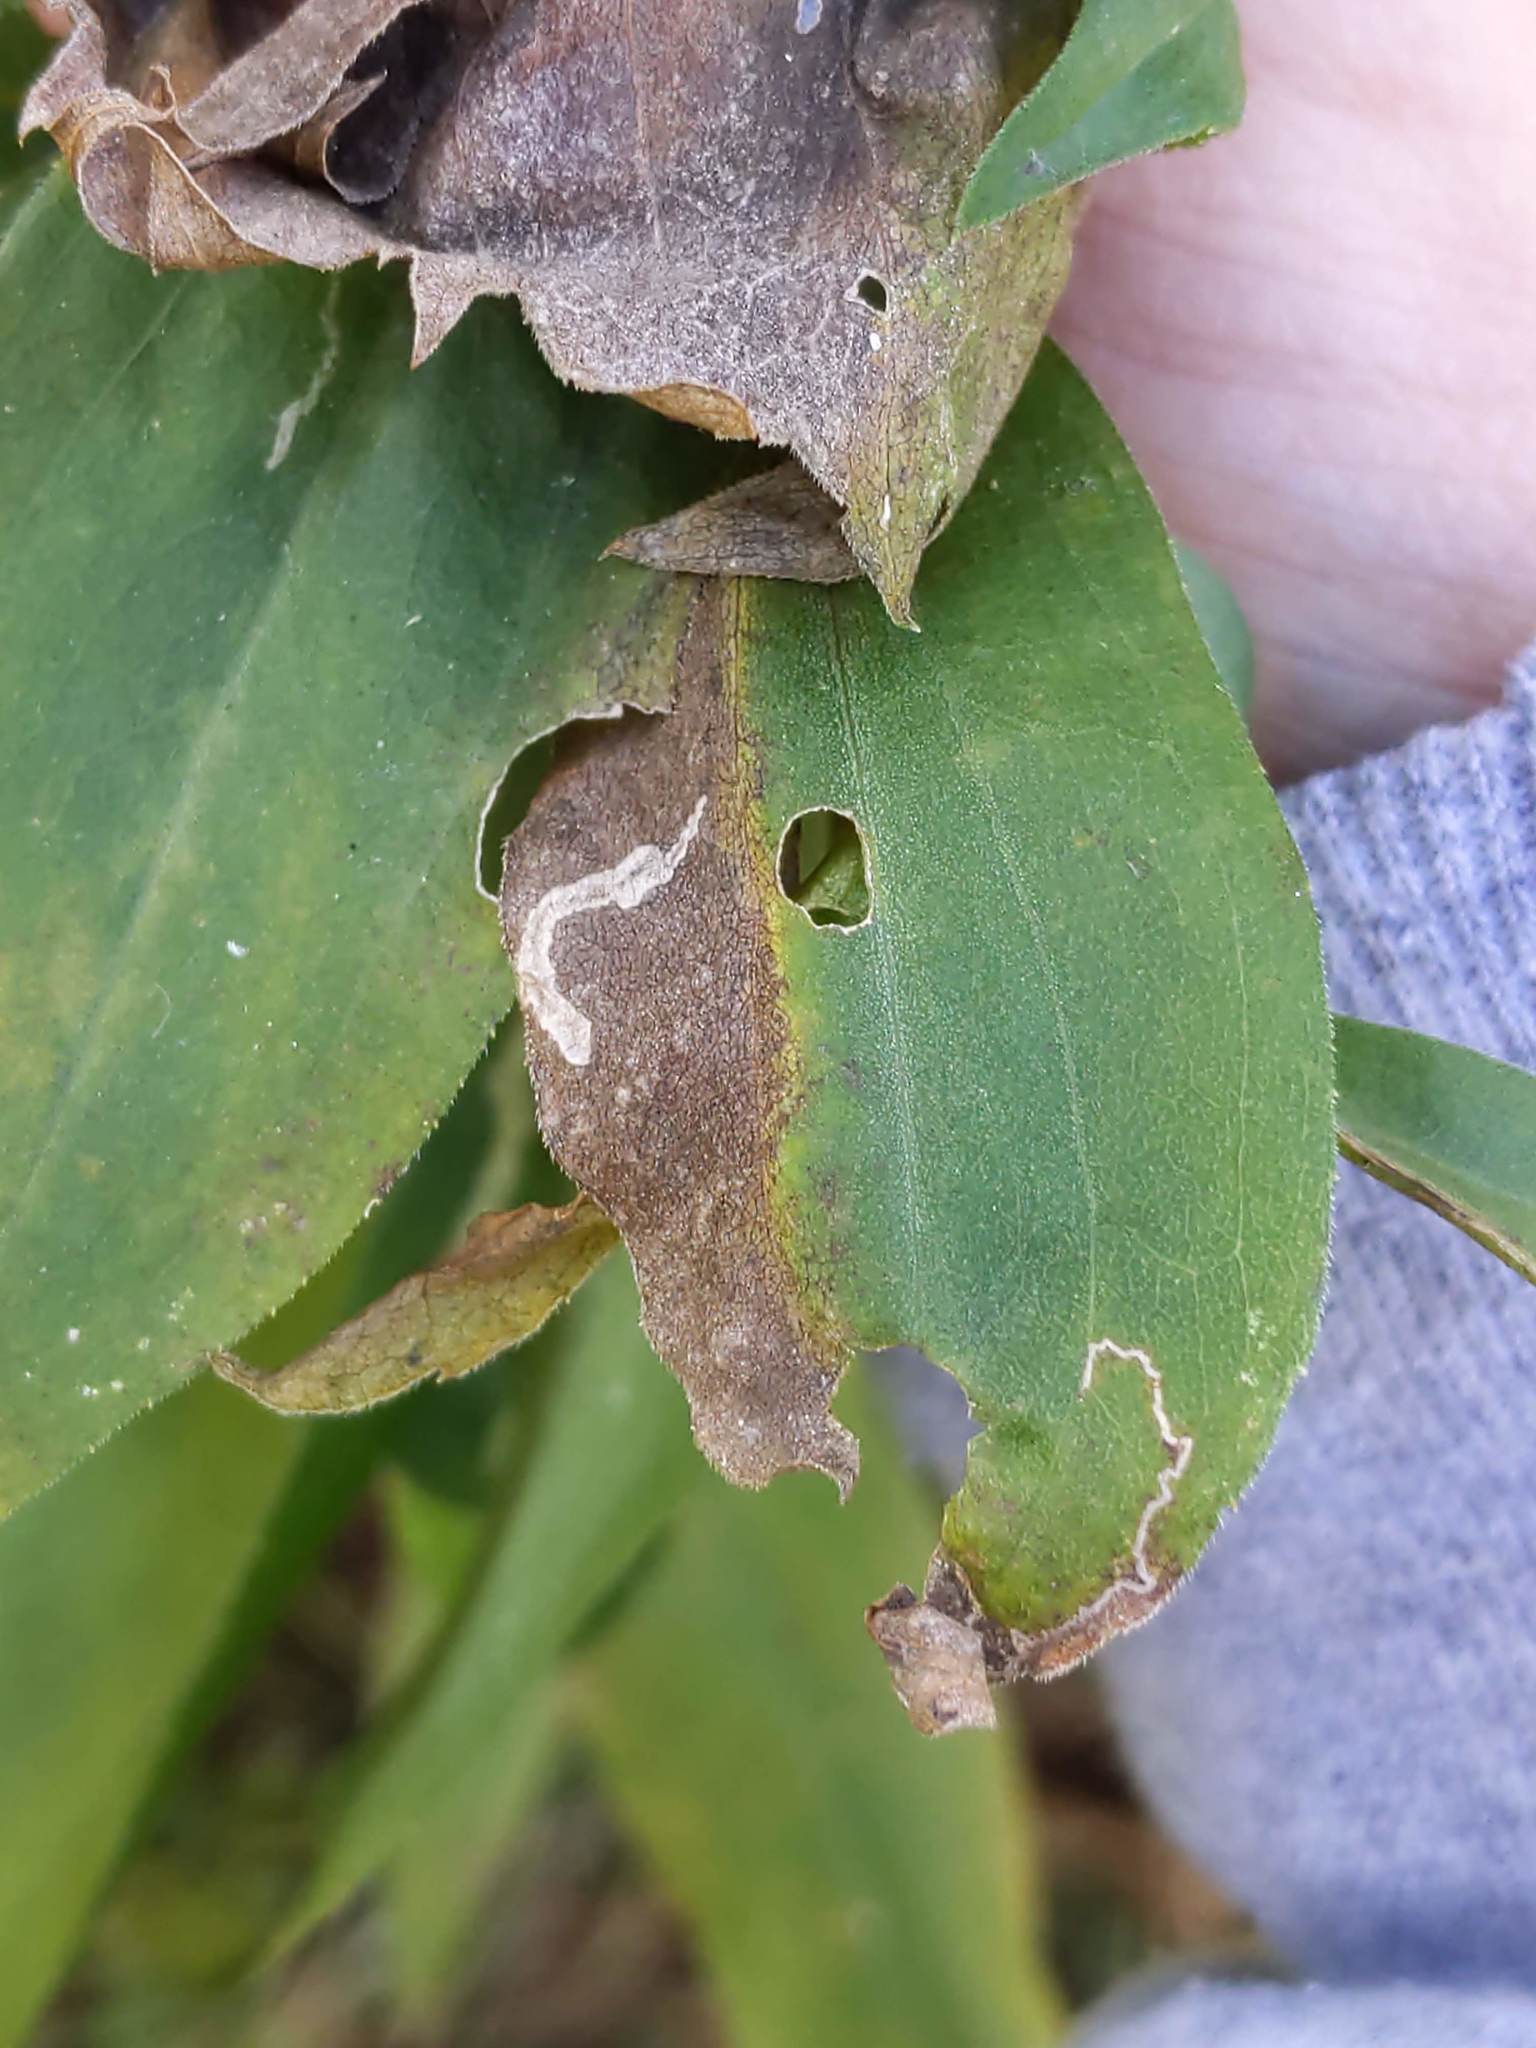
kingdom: Animalia
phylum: Arthropoda
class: Insecta
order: Lepidoptera
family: Bucculatricidae
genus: Bucculatrix
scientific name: Bucculatrix angustata
